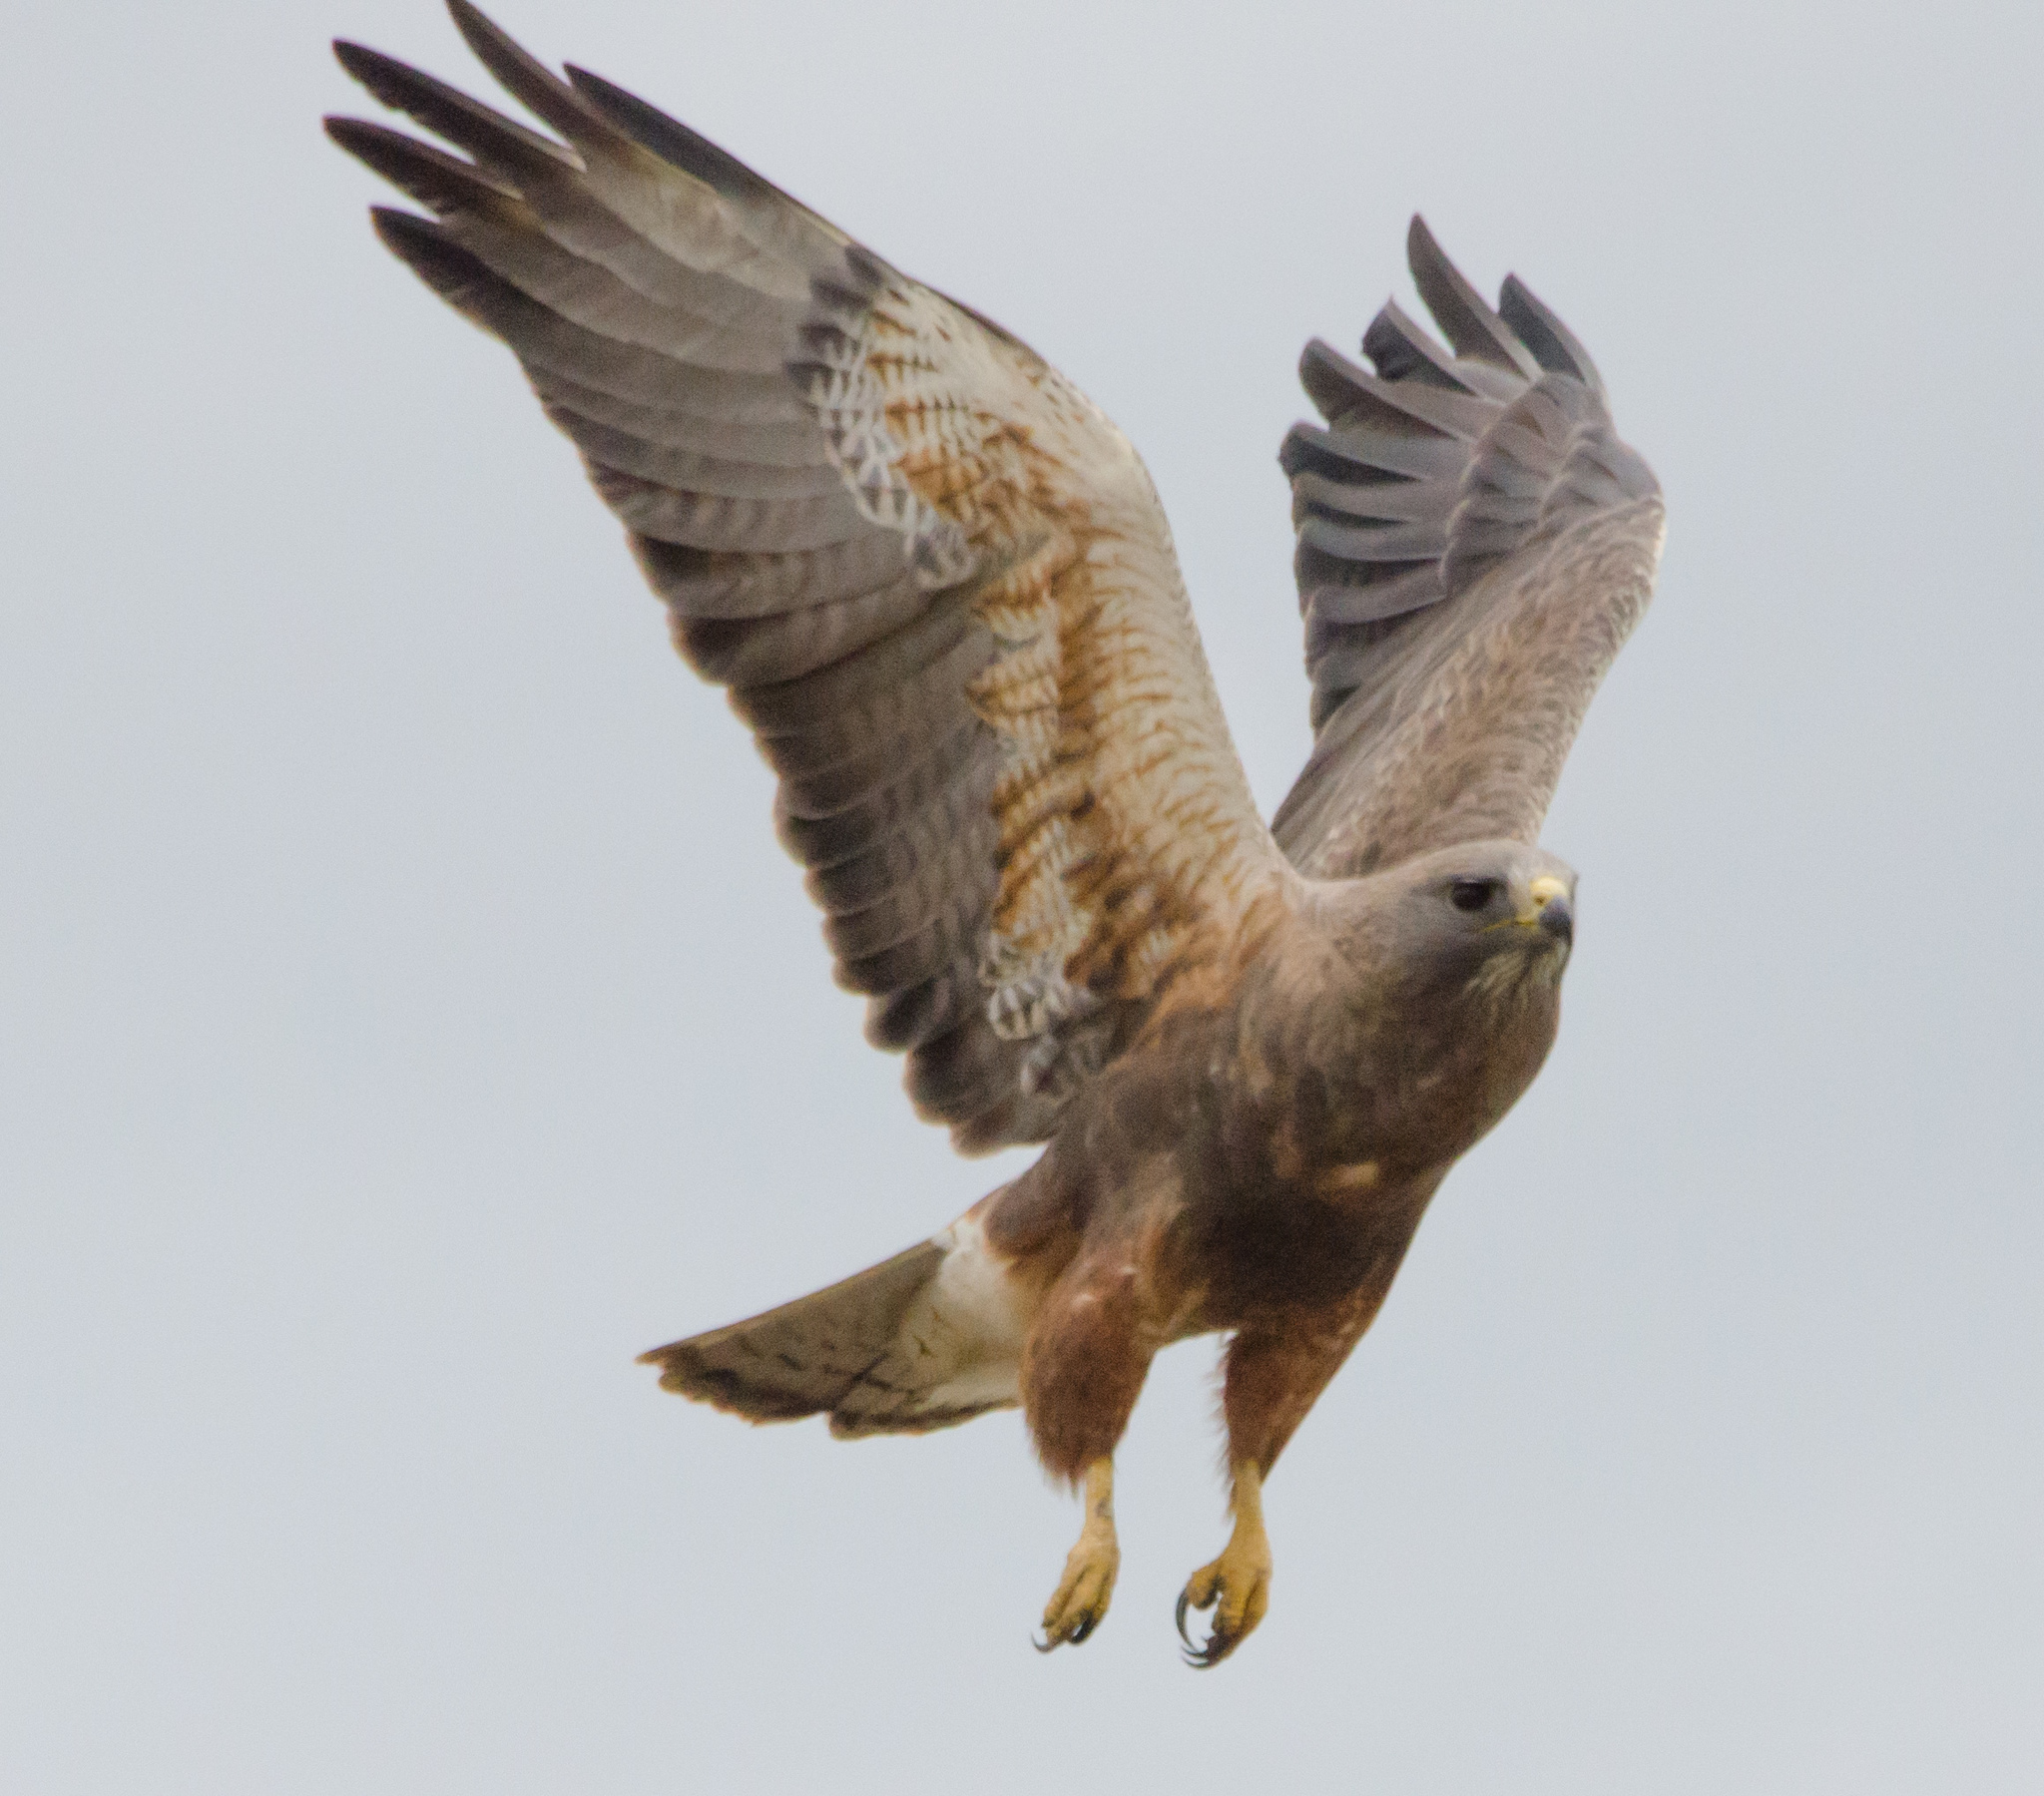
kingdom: Animalia
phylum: Chordata
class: Aves
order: Accipitriformes
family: Accipitridae
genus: Buteo
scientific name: Buteo swainsoni
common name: Swainson's hawk
